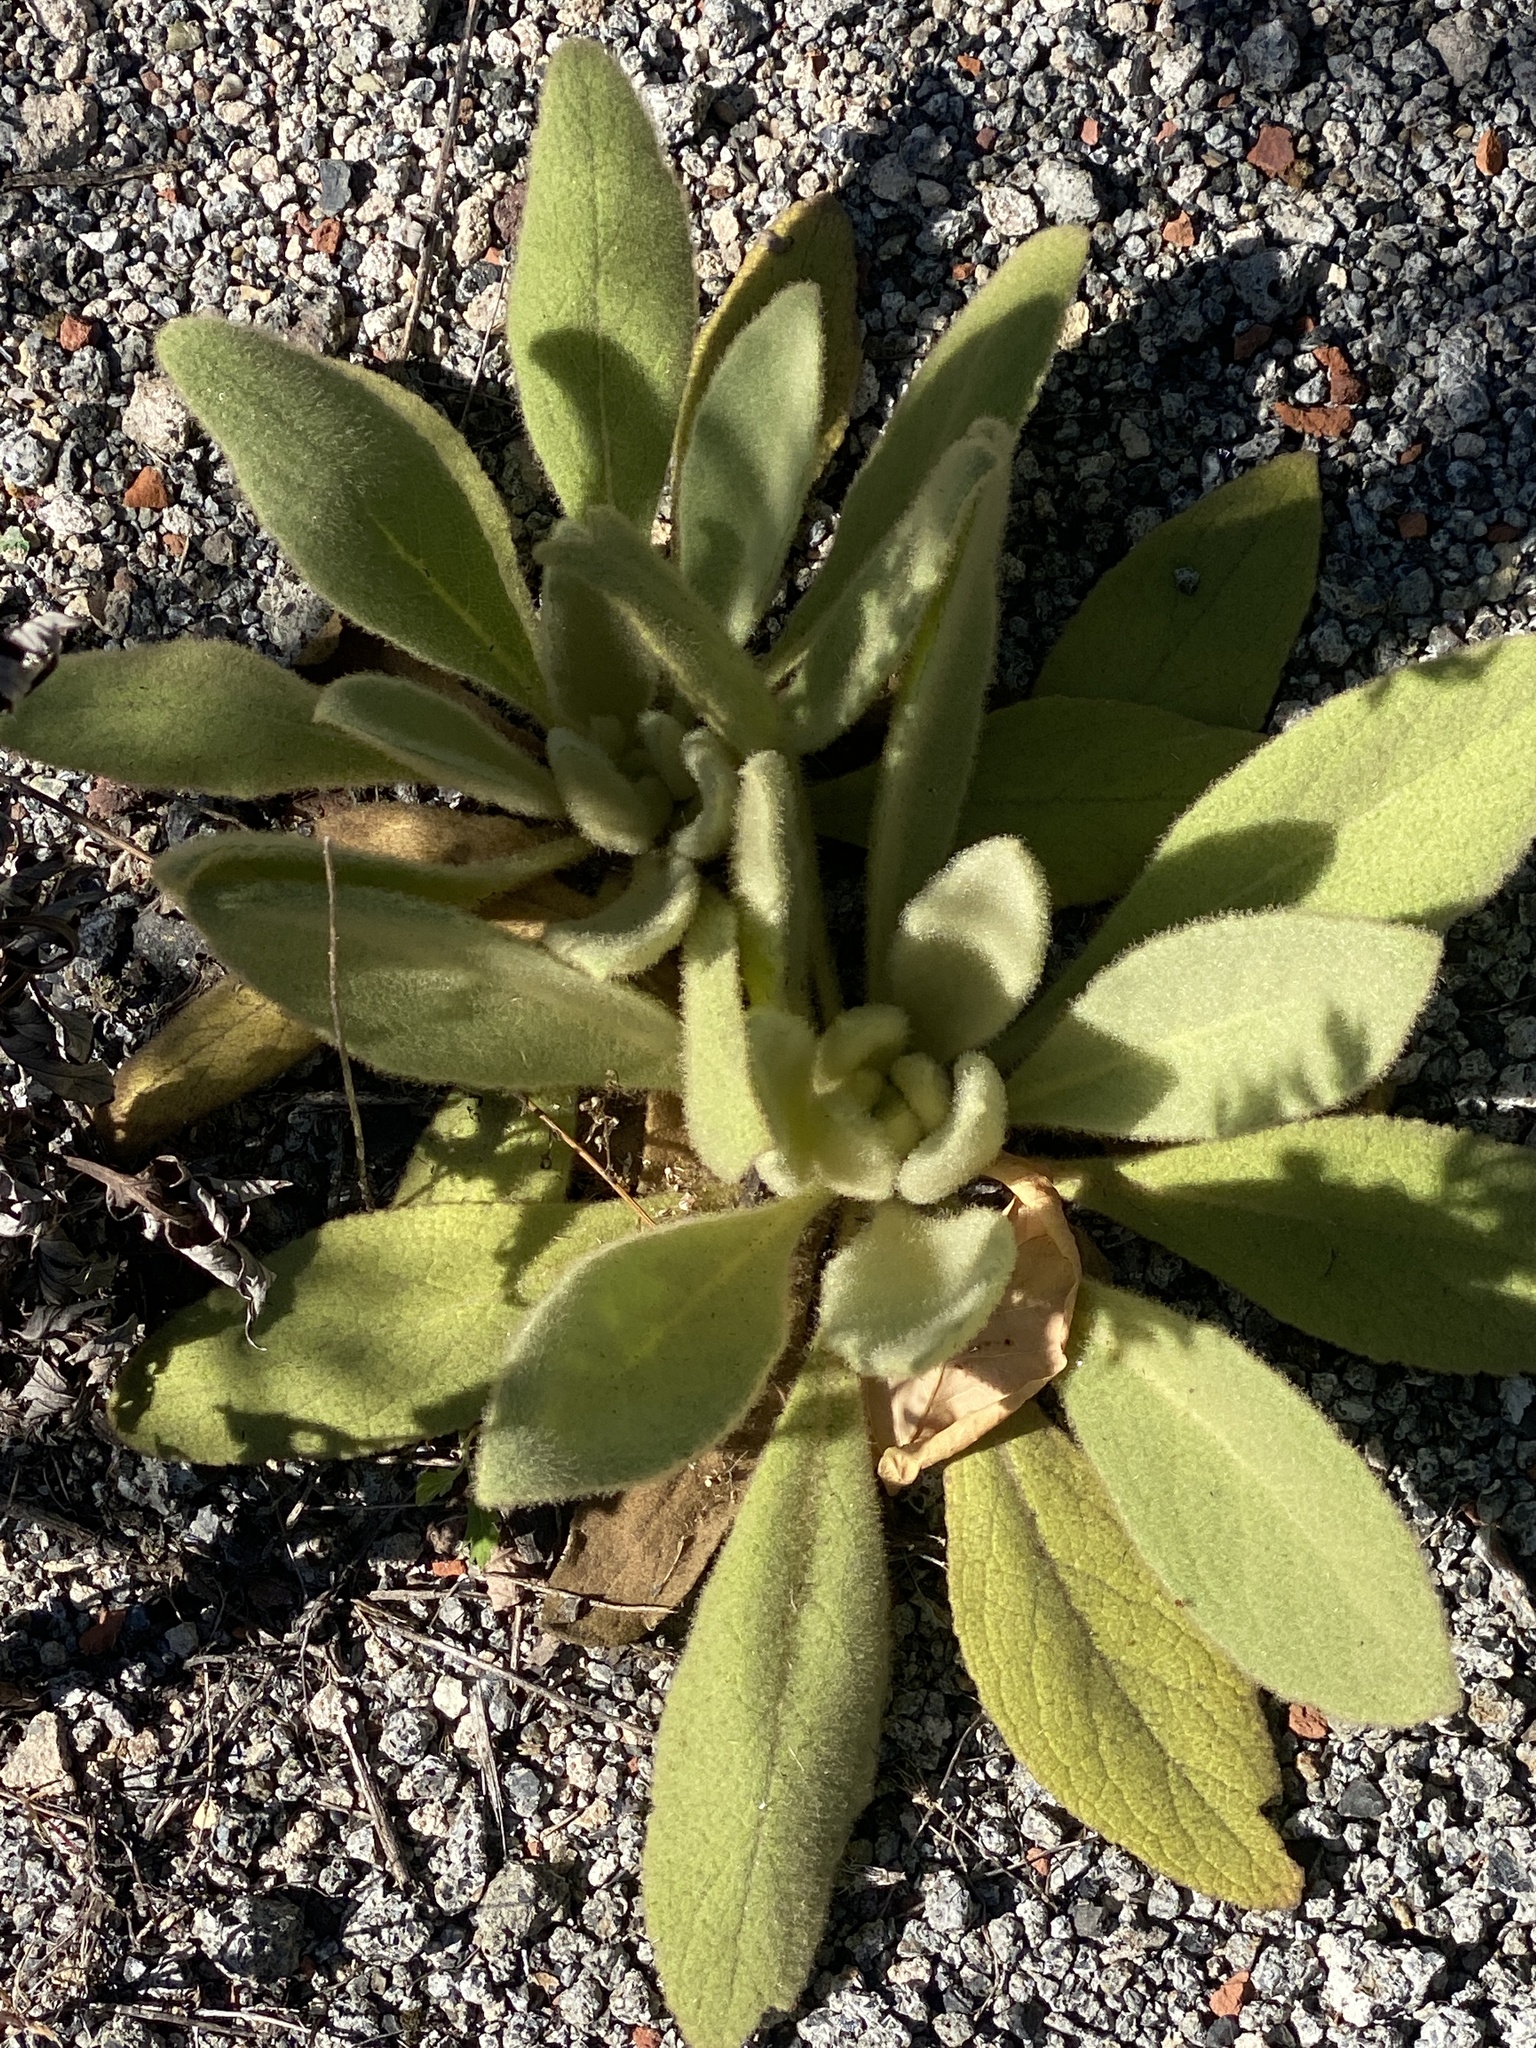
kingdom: Plantae
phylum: Tracheophyta
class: Magnoliopsida
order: Lamiales
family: Scrophulariaceae
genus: Verbascum
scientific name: Verbascum thapsus
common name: Common mullein
